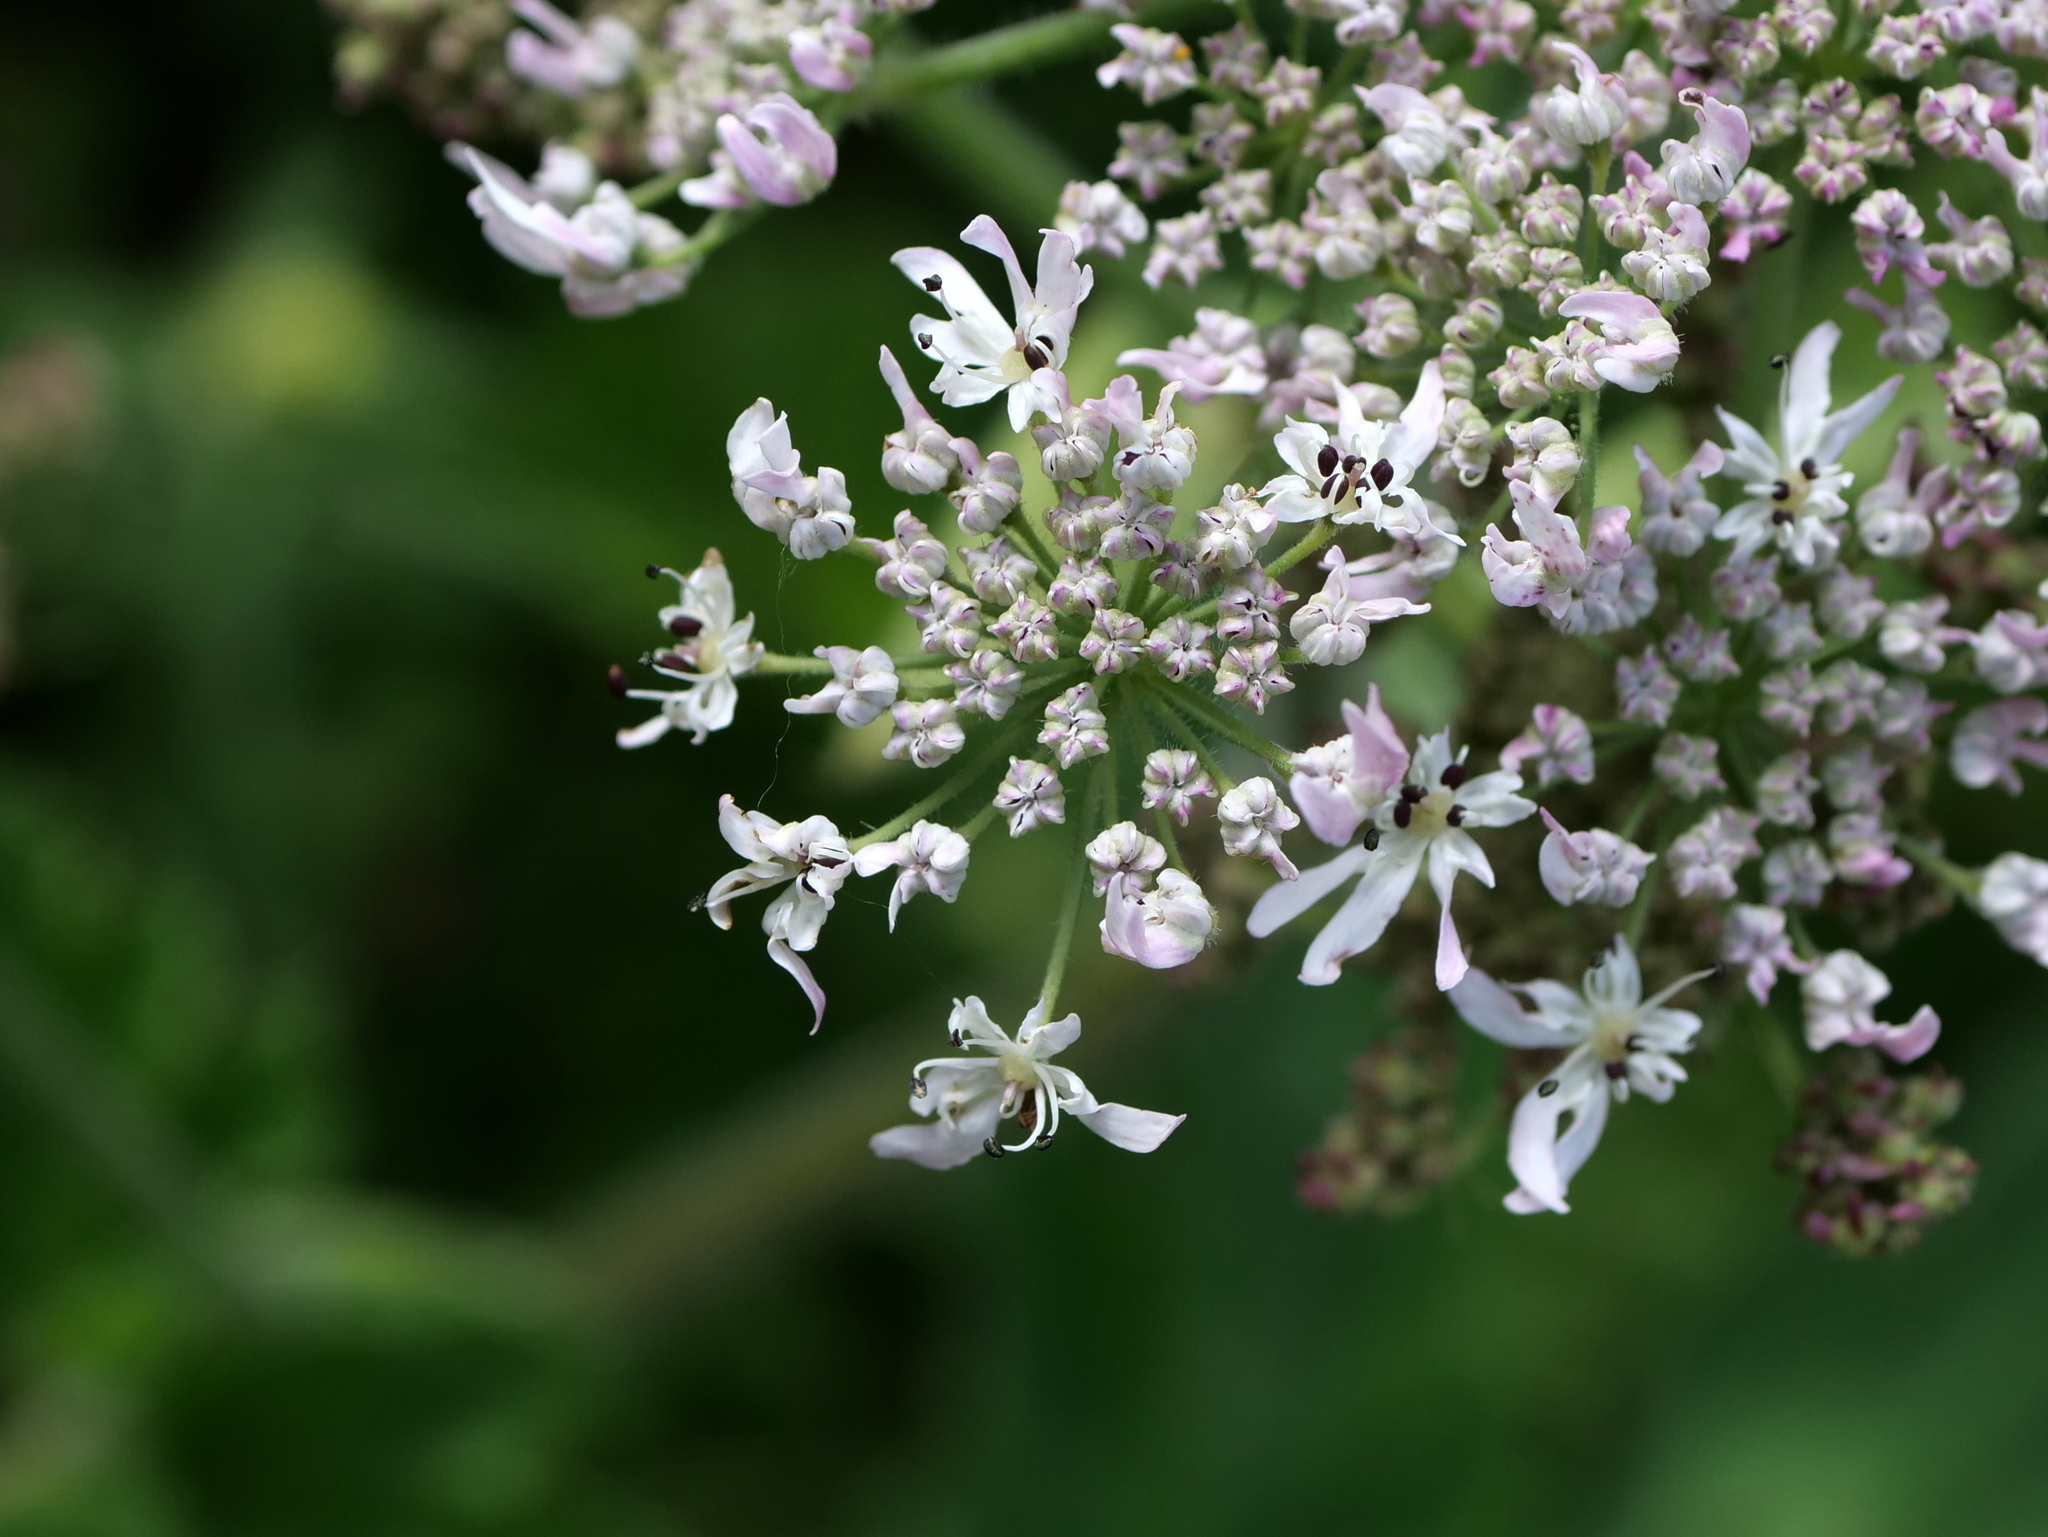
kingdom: Plantae
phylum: Tracheophyta
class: Magnoliopsida
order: Apiales
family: Apiaceae
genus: Heracleum
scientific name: Heracleum sphondylium
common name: Hogweed
